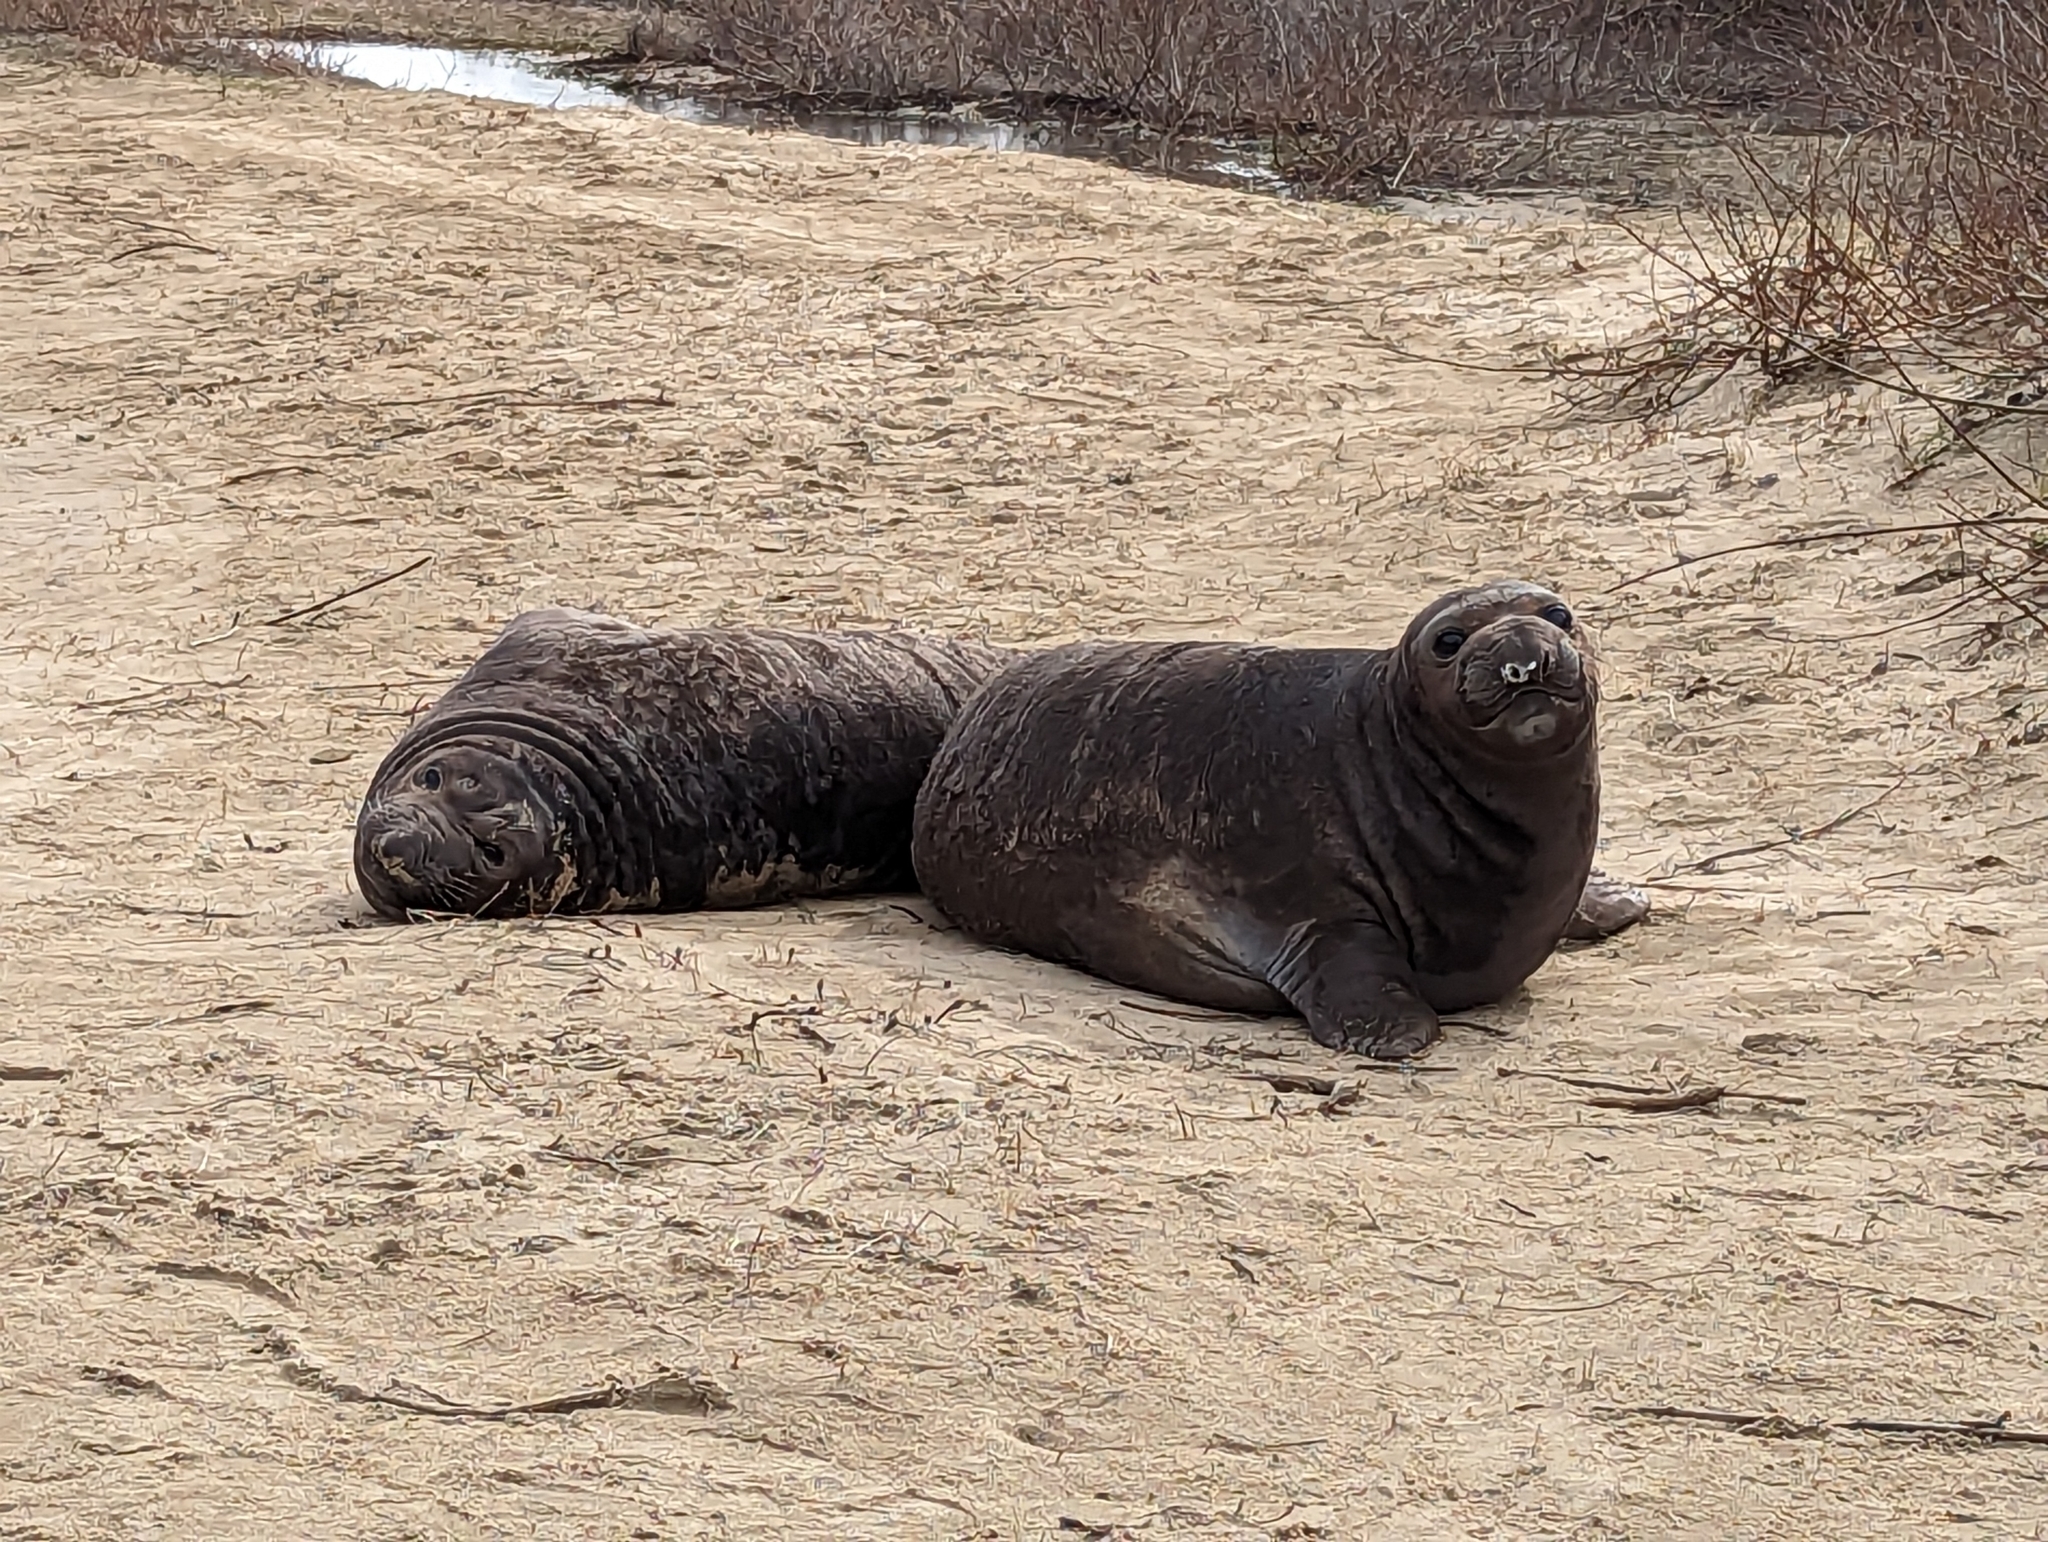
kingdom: Animalia
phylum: Chordata
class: Mammalia
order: Carnivora
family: Phocidae
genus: Mirounga
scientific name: Mirounga angustirostris
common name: Northern elephant seal
